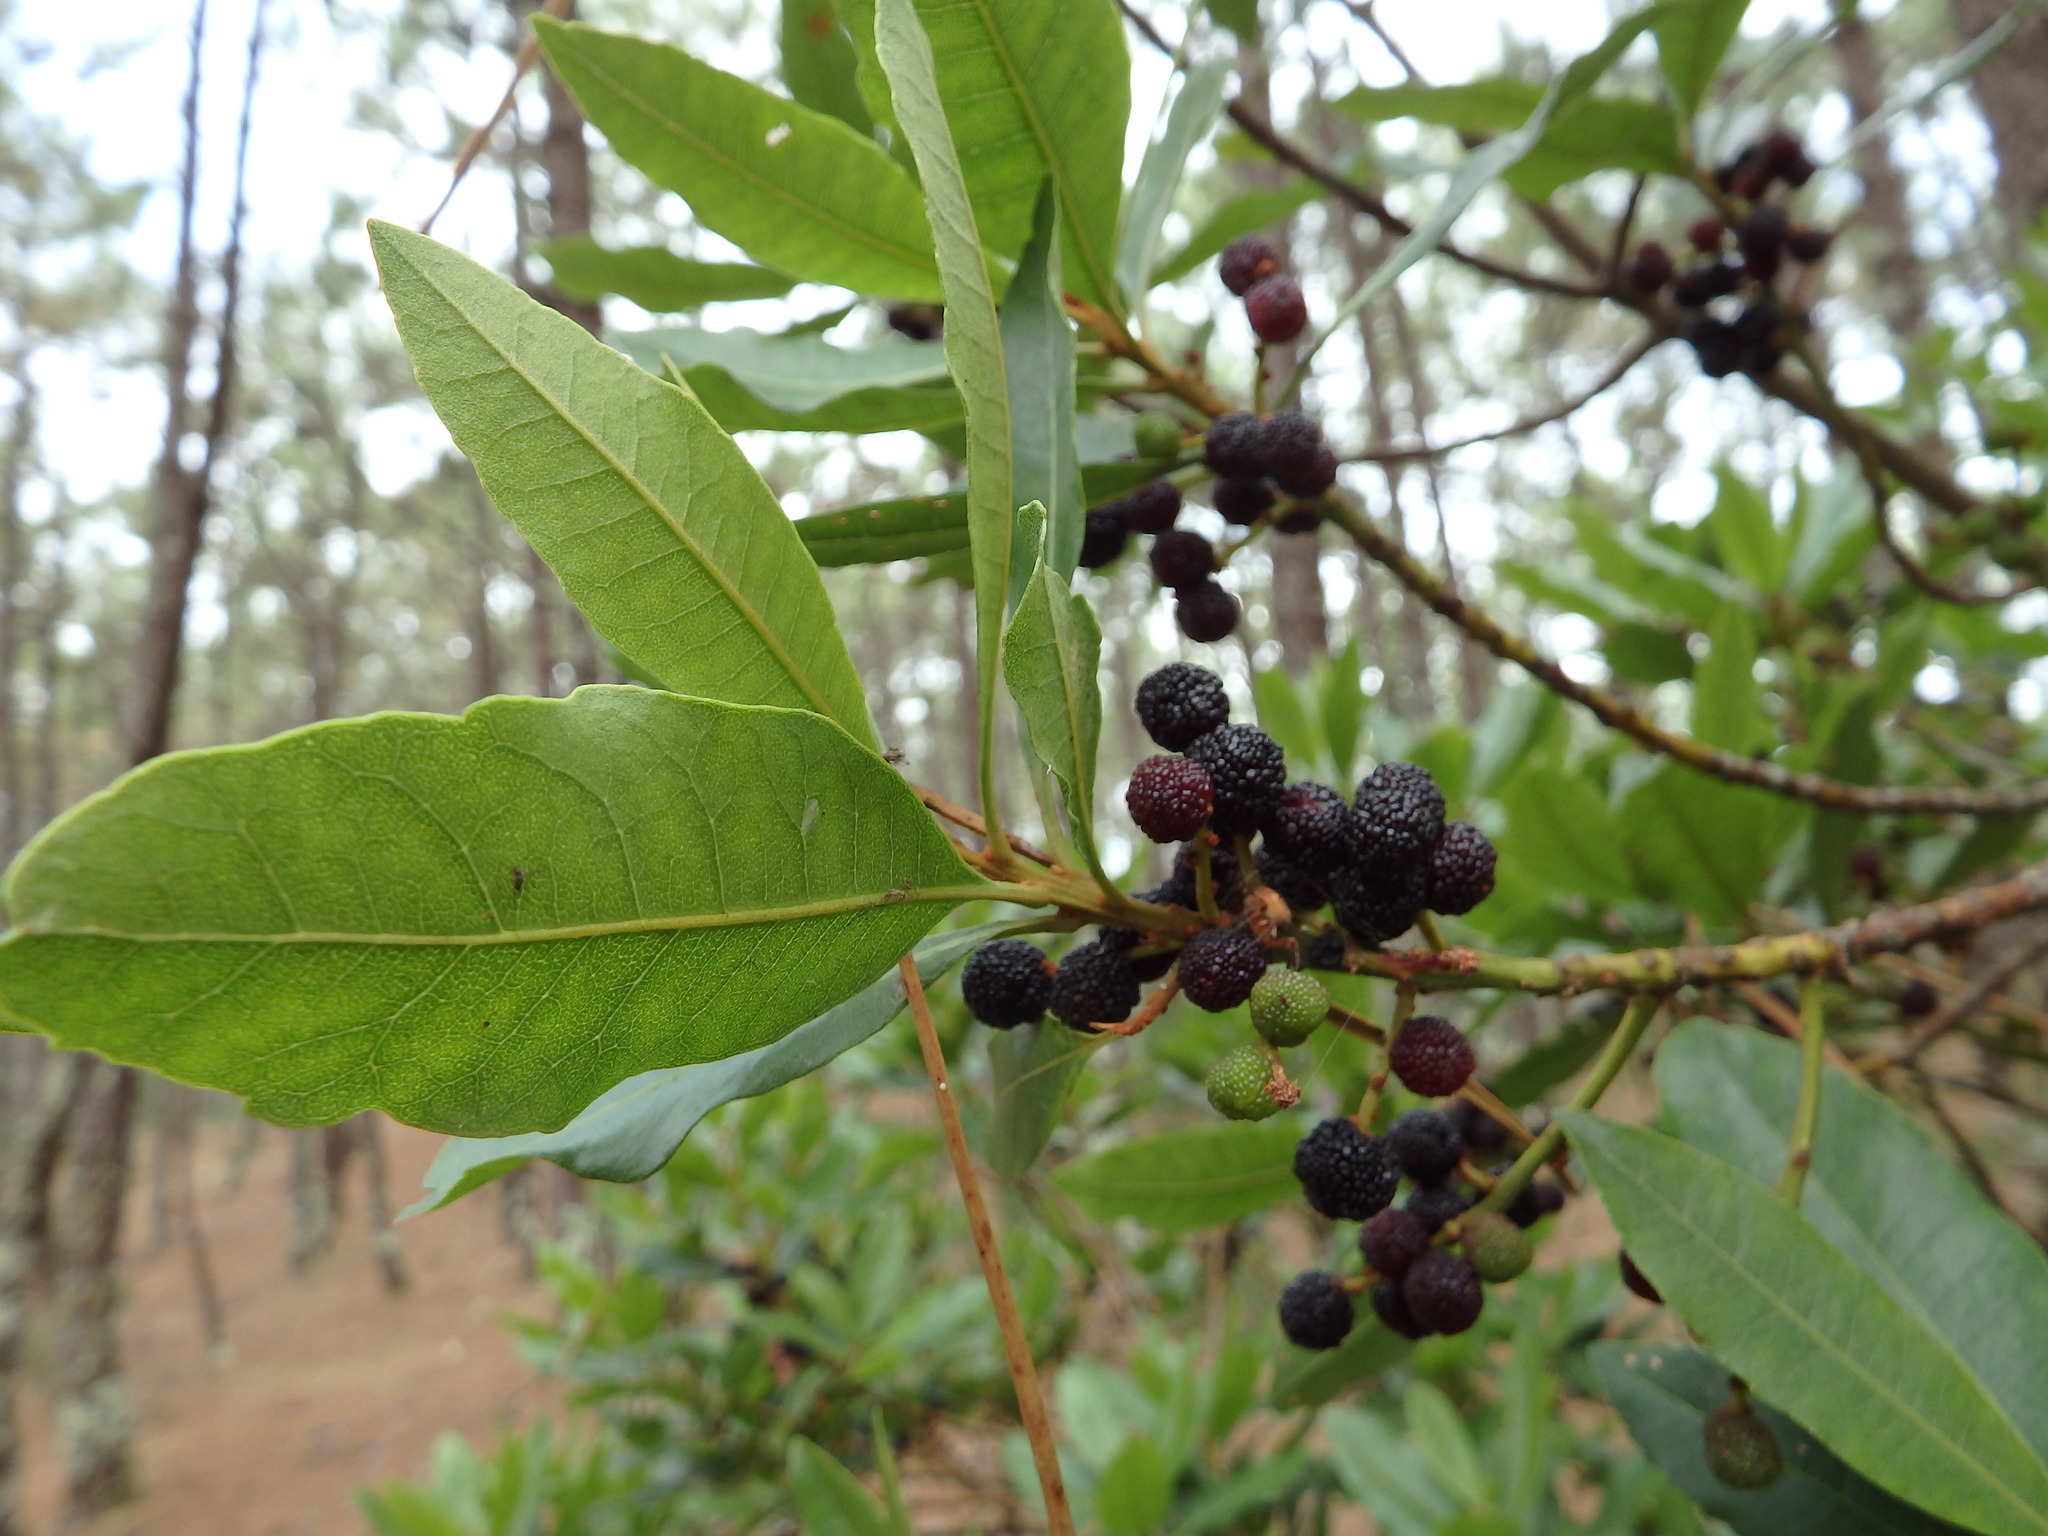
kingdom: Plantae
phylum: Tracheophyta
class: Magnoliopsida
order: Fagales
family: Myricaceae
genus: Morella
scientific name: Morella faya
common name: Firetree
